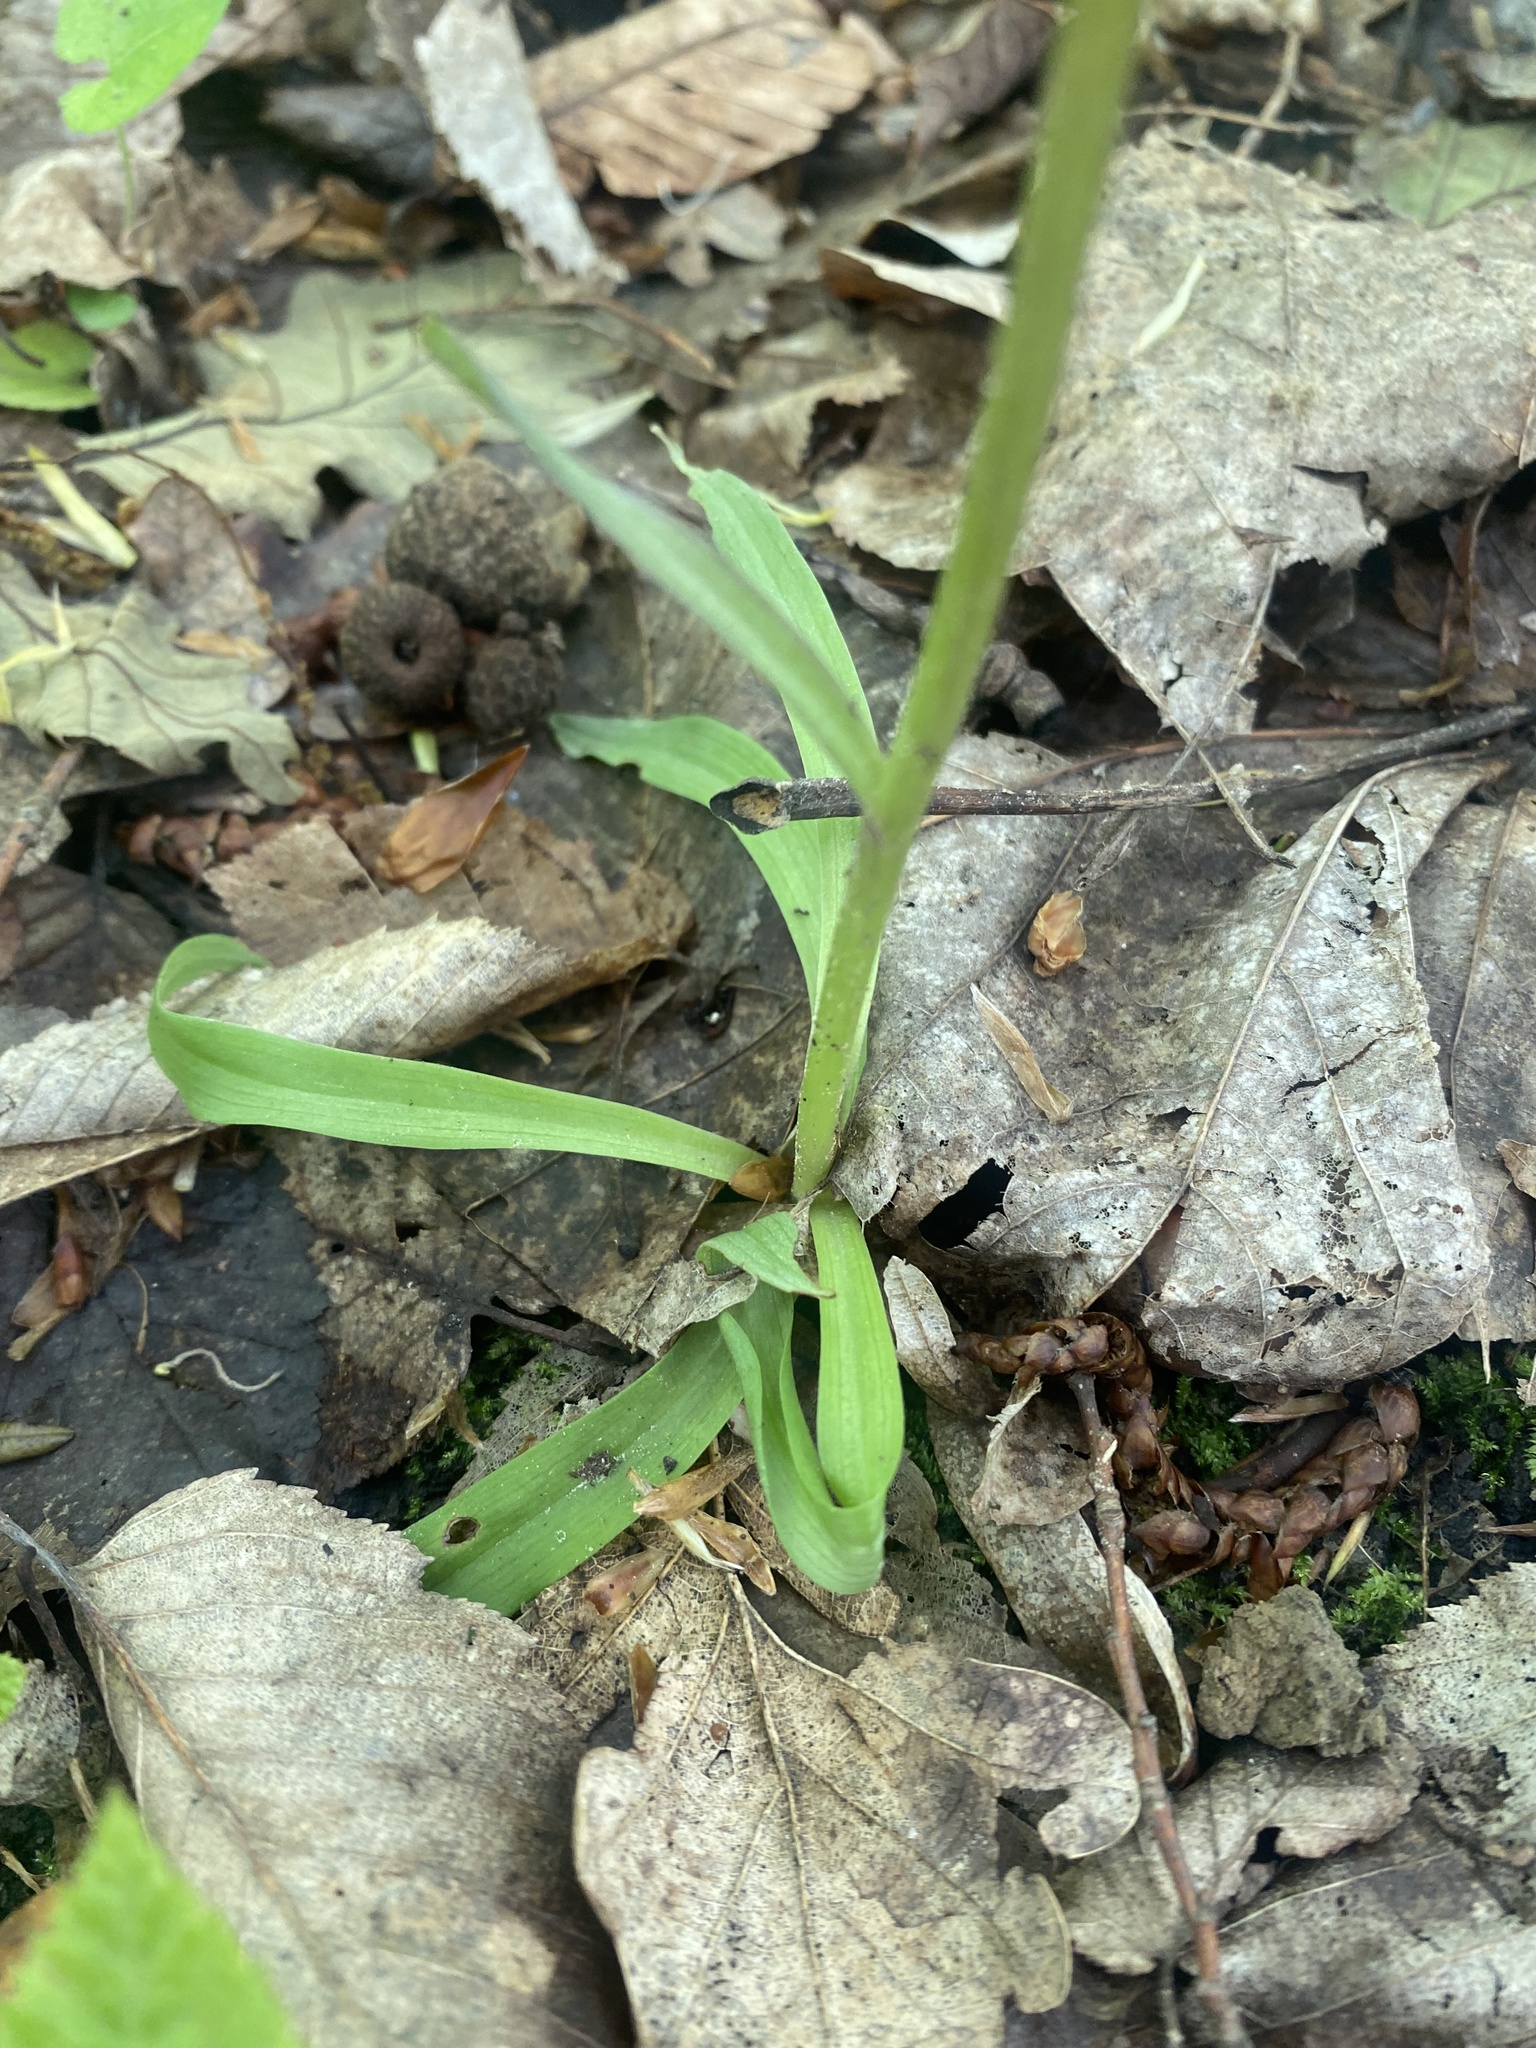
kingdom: Plantae
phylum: Tracheophyta
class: Liliopsida
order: Asparagales
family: Orchidaceae
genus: Orchis
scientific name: Orchis mascula
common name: Early-purple orchid
